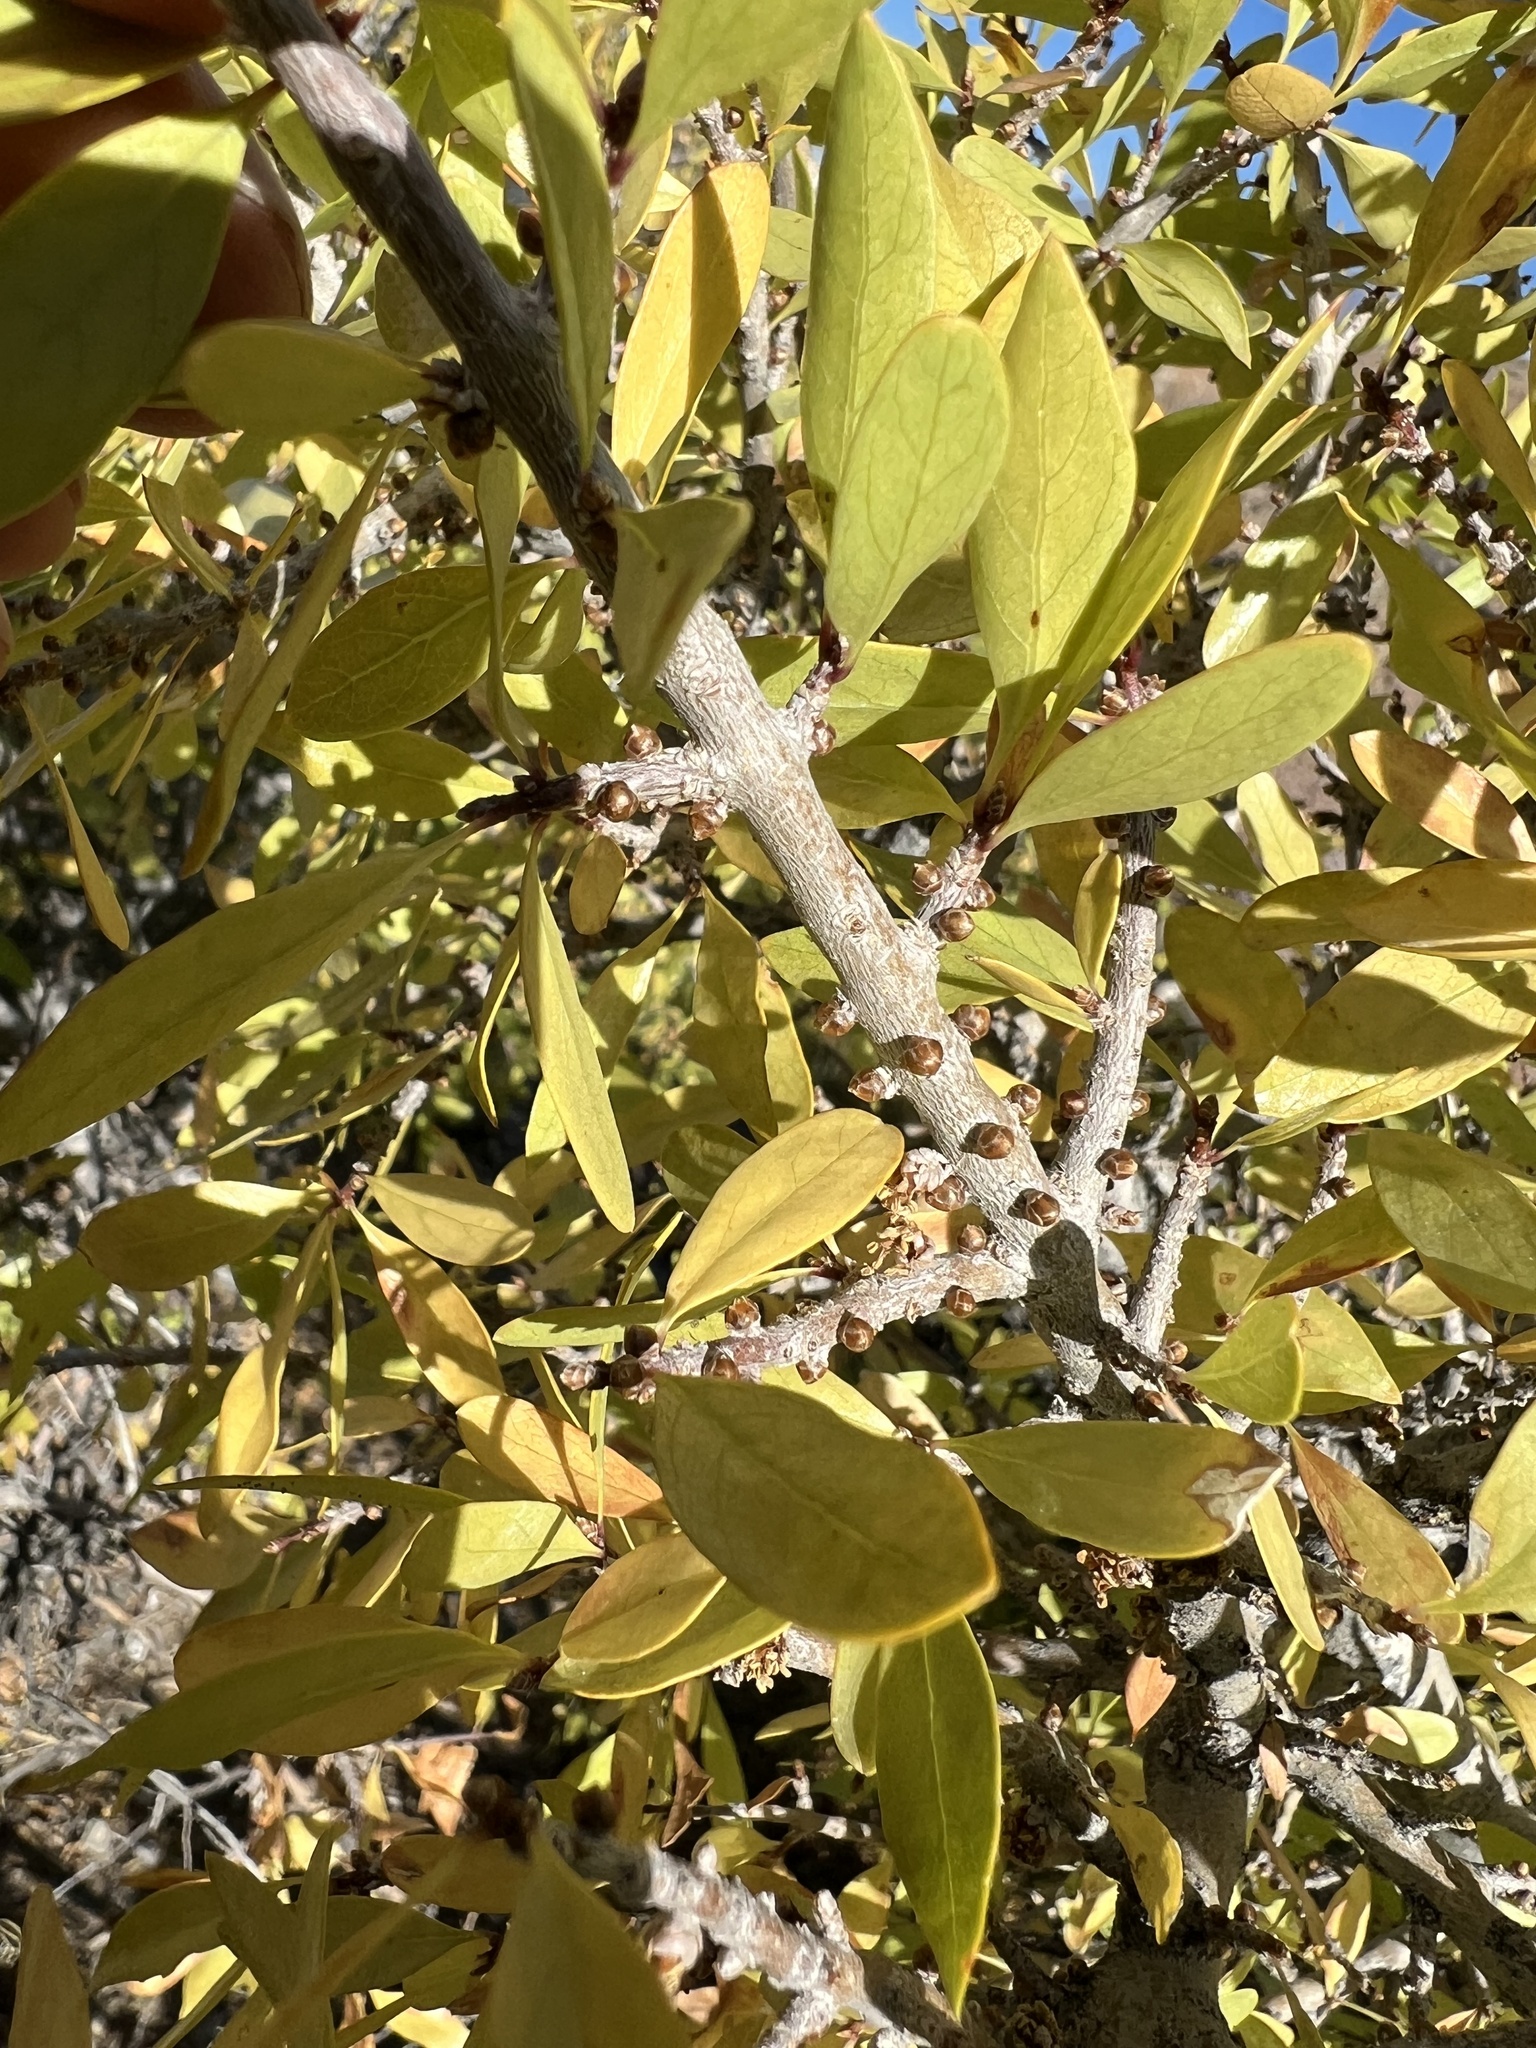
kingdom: Plantae
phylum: Tracheophyta
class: Magnoliopsida
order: Lamiales
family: Oleaceae
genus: Forestiera
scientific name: Forestiera pubescens
